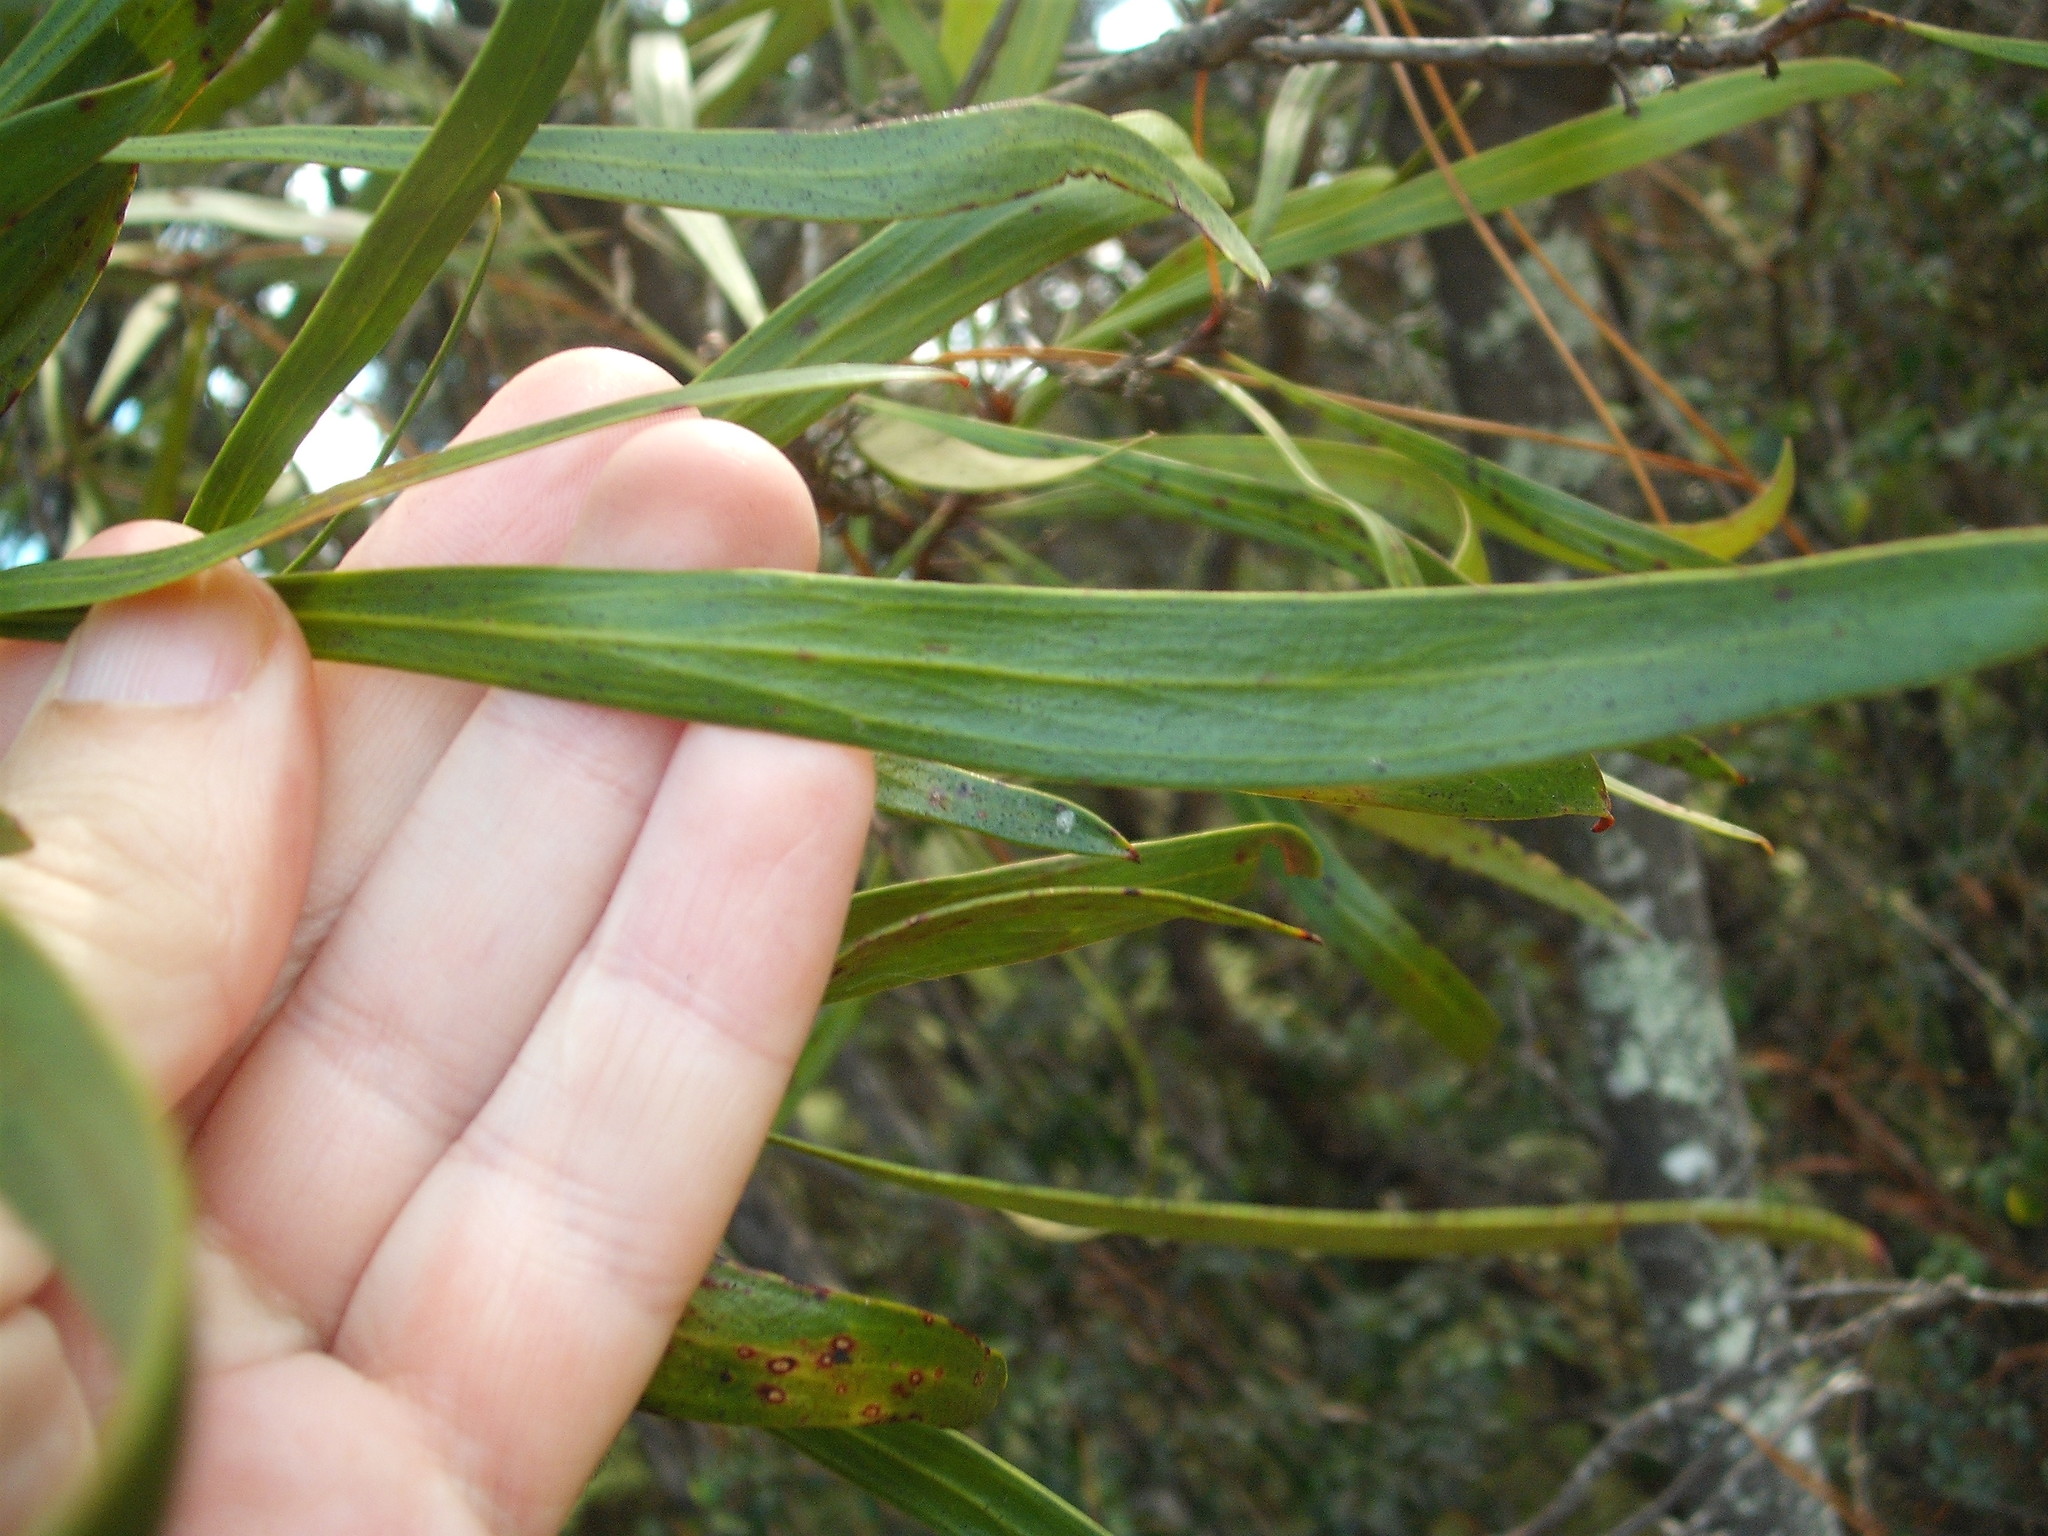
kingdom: Plantae
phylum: Tracheophyta
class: Magnoliopsida
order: Proteales
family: Proteaceae
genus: Toronia
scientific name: Toronia toru
